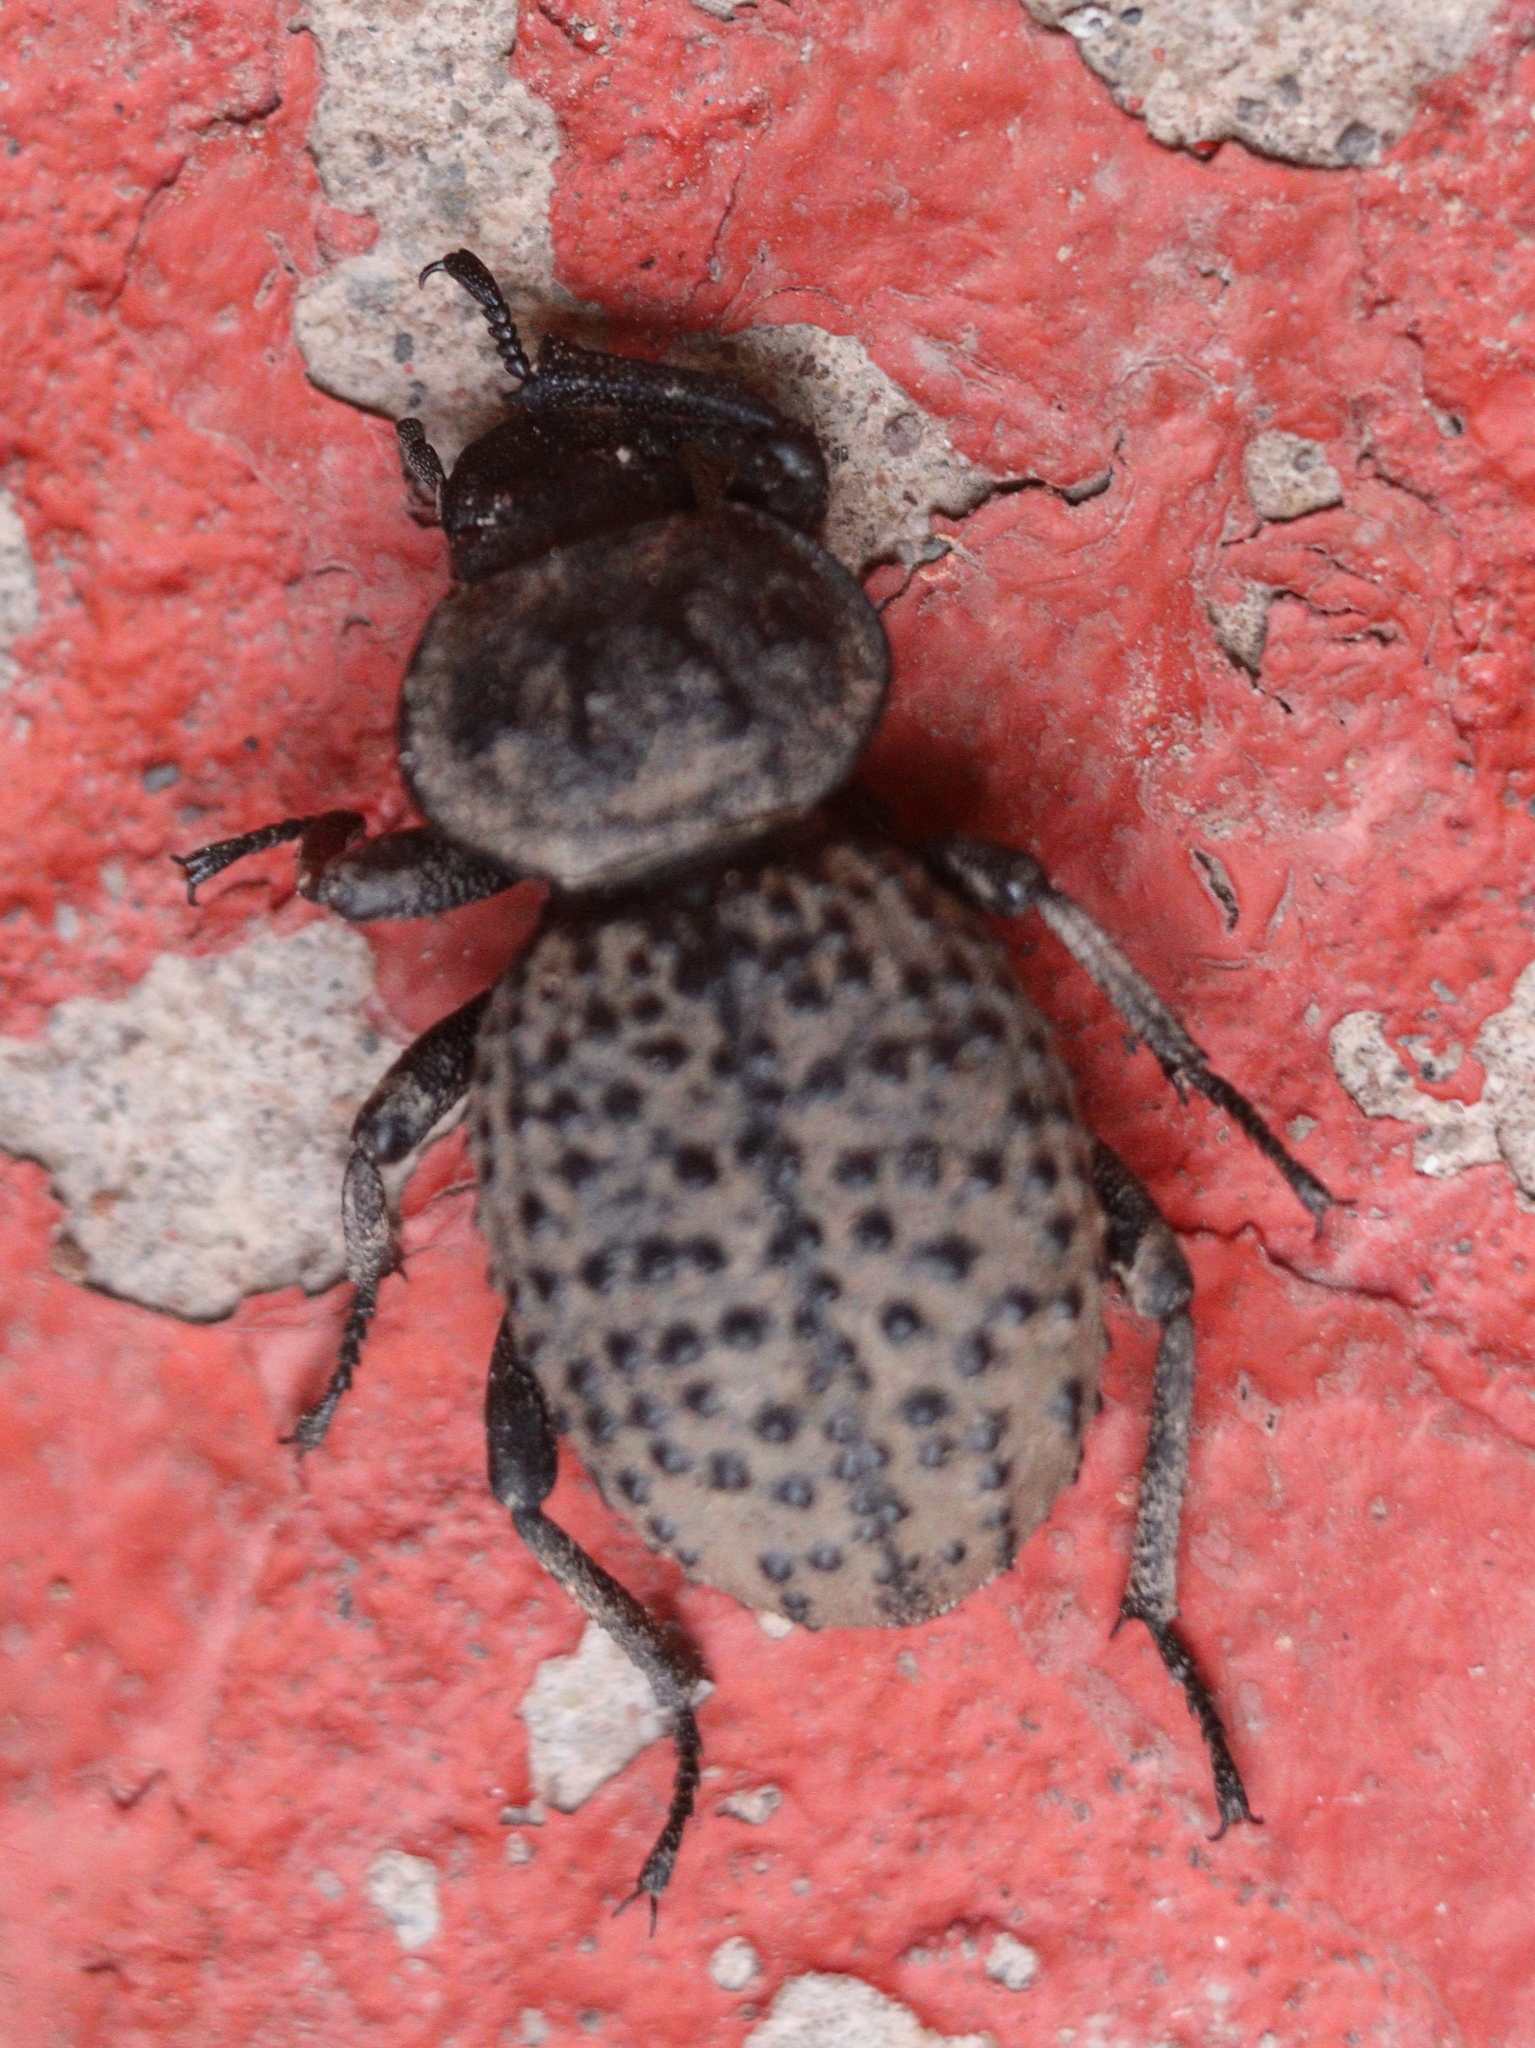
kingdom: Animalia
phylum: Arthropoda
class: Insecta
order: Coleoptera
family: Tenebrionidae
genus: Scotobius
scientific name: Scotobius pilularius
